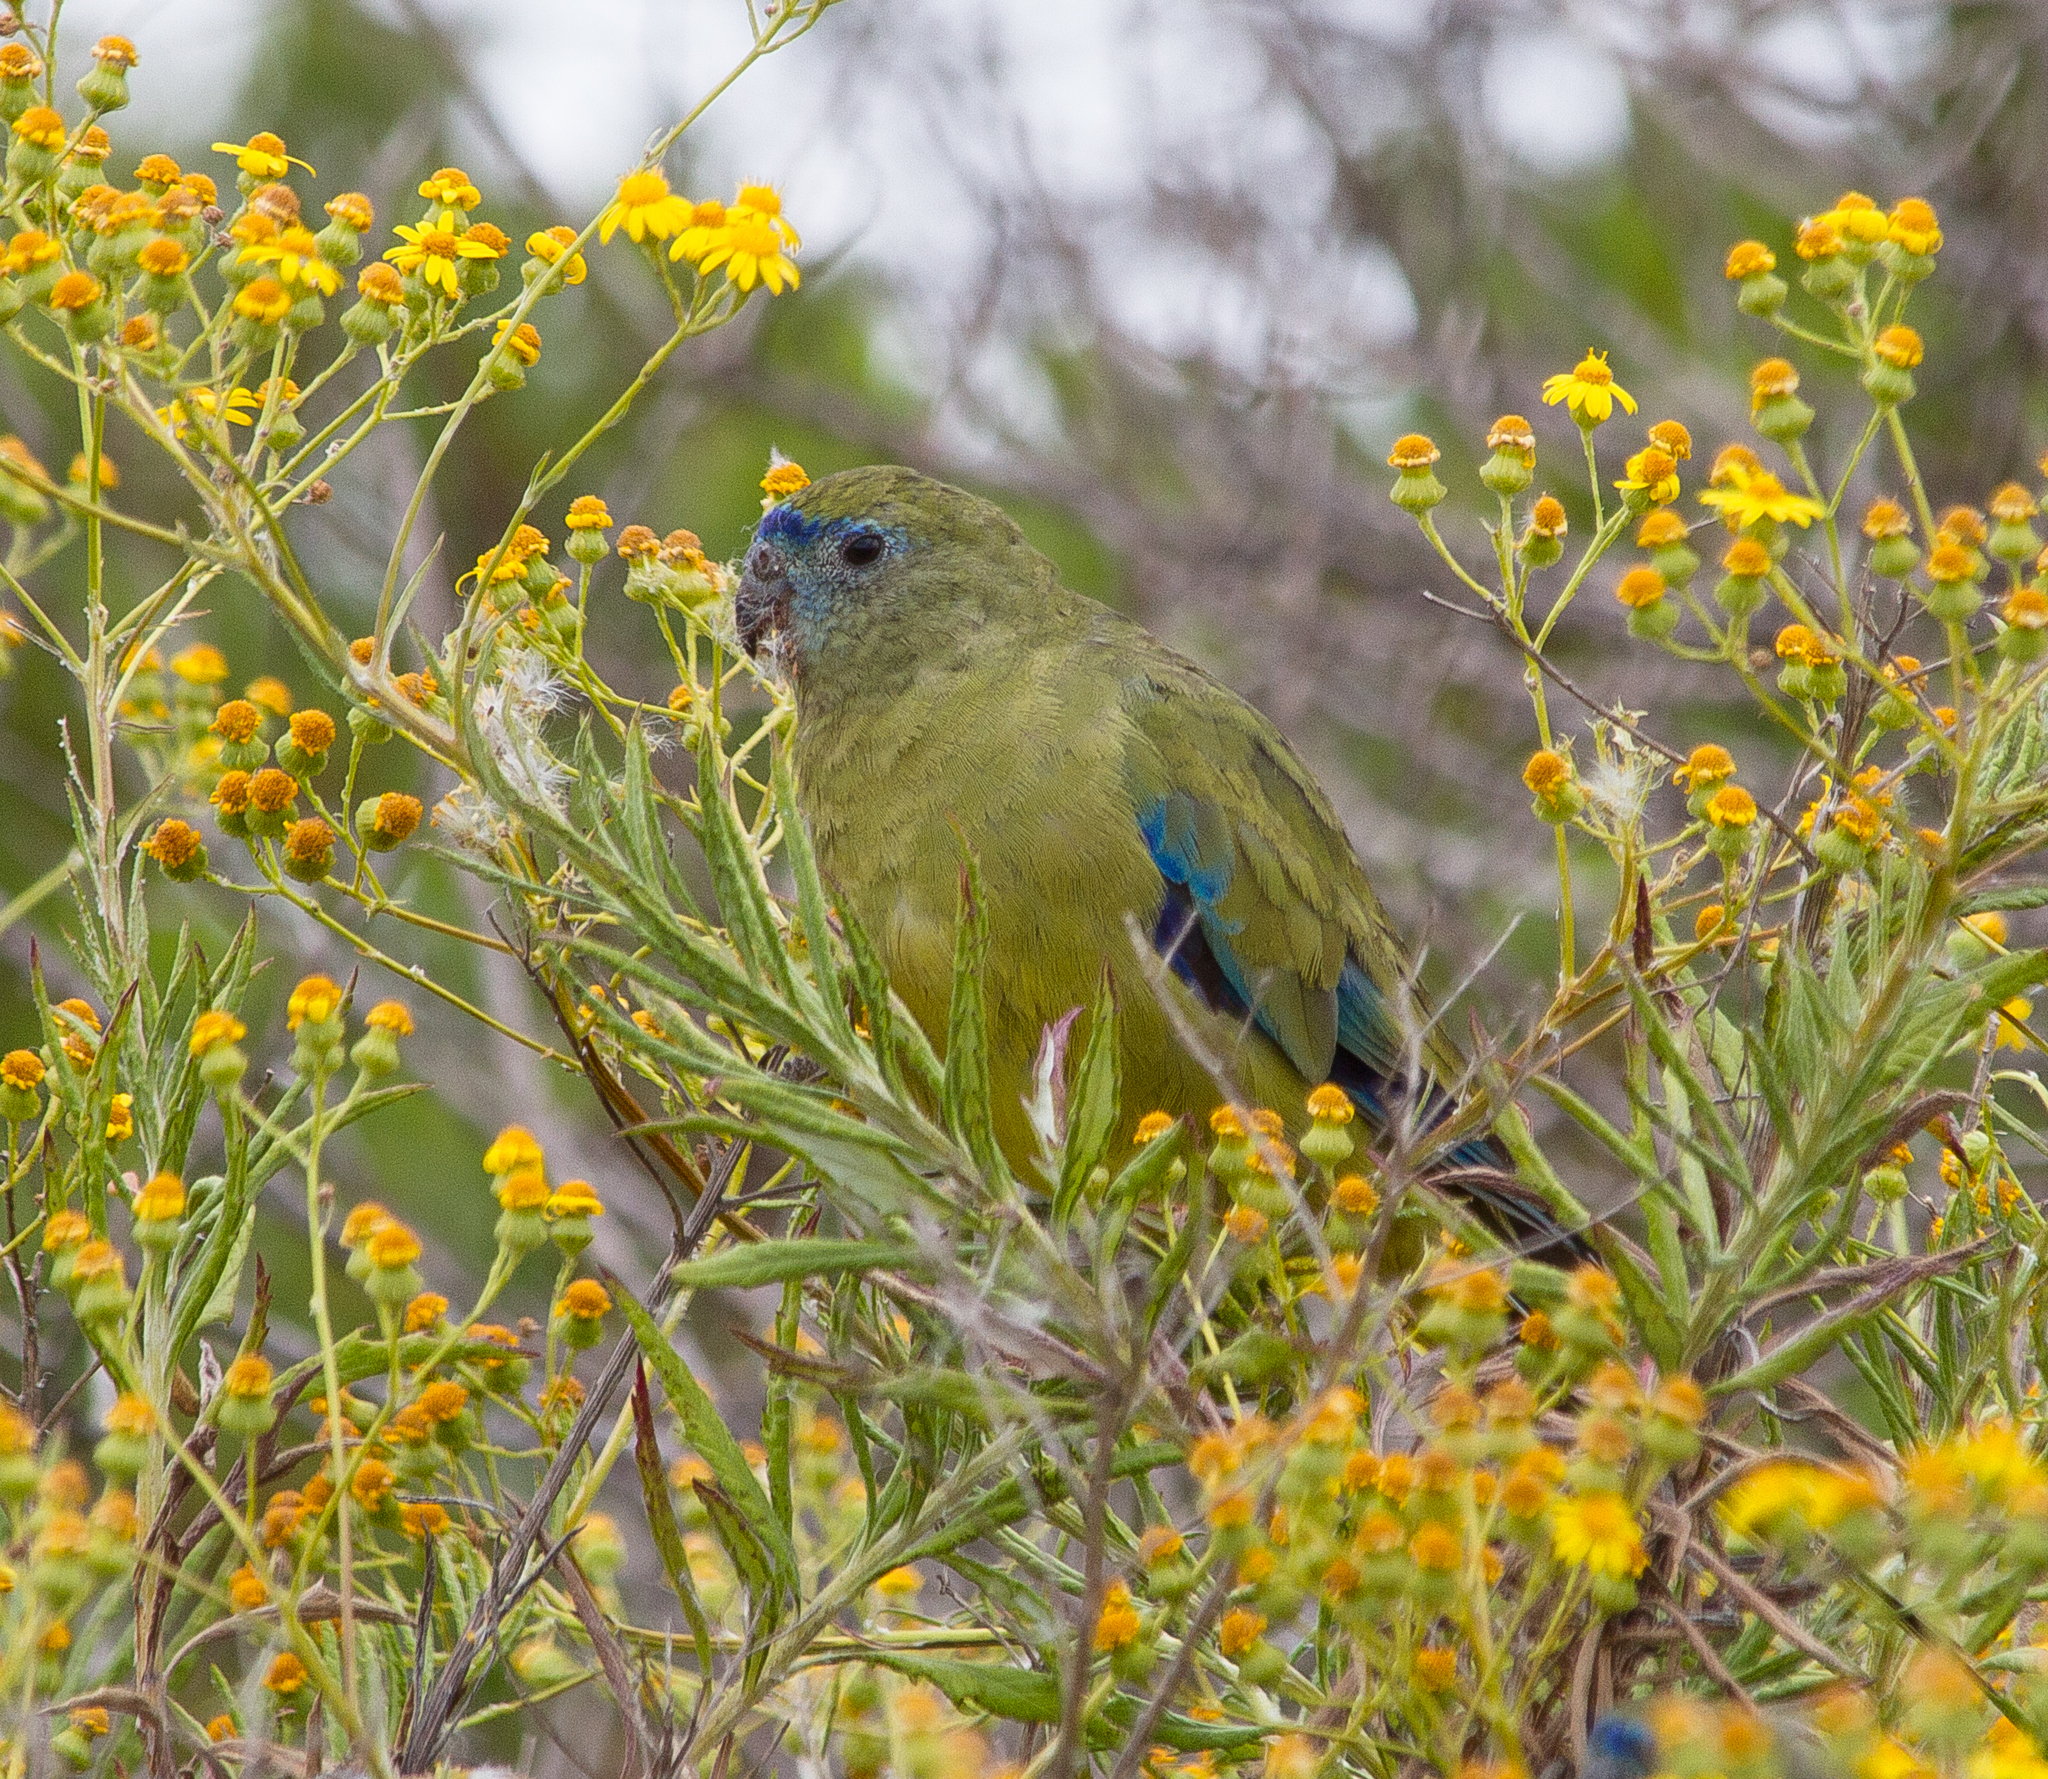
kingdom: Animalia
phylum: Chordata
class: Aves
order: Psittaciformes
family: Psittacidae
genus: Neophema
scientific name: Neophema petrophila
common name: Rock parrot
